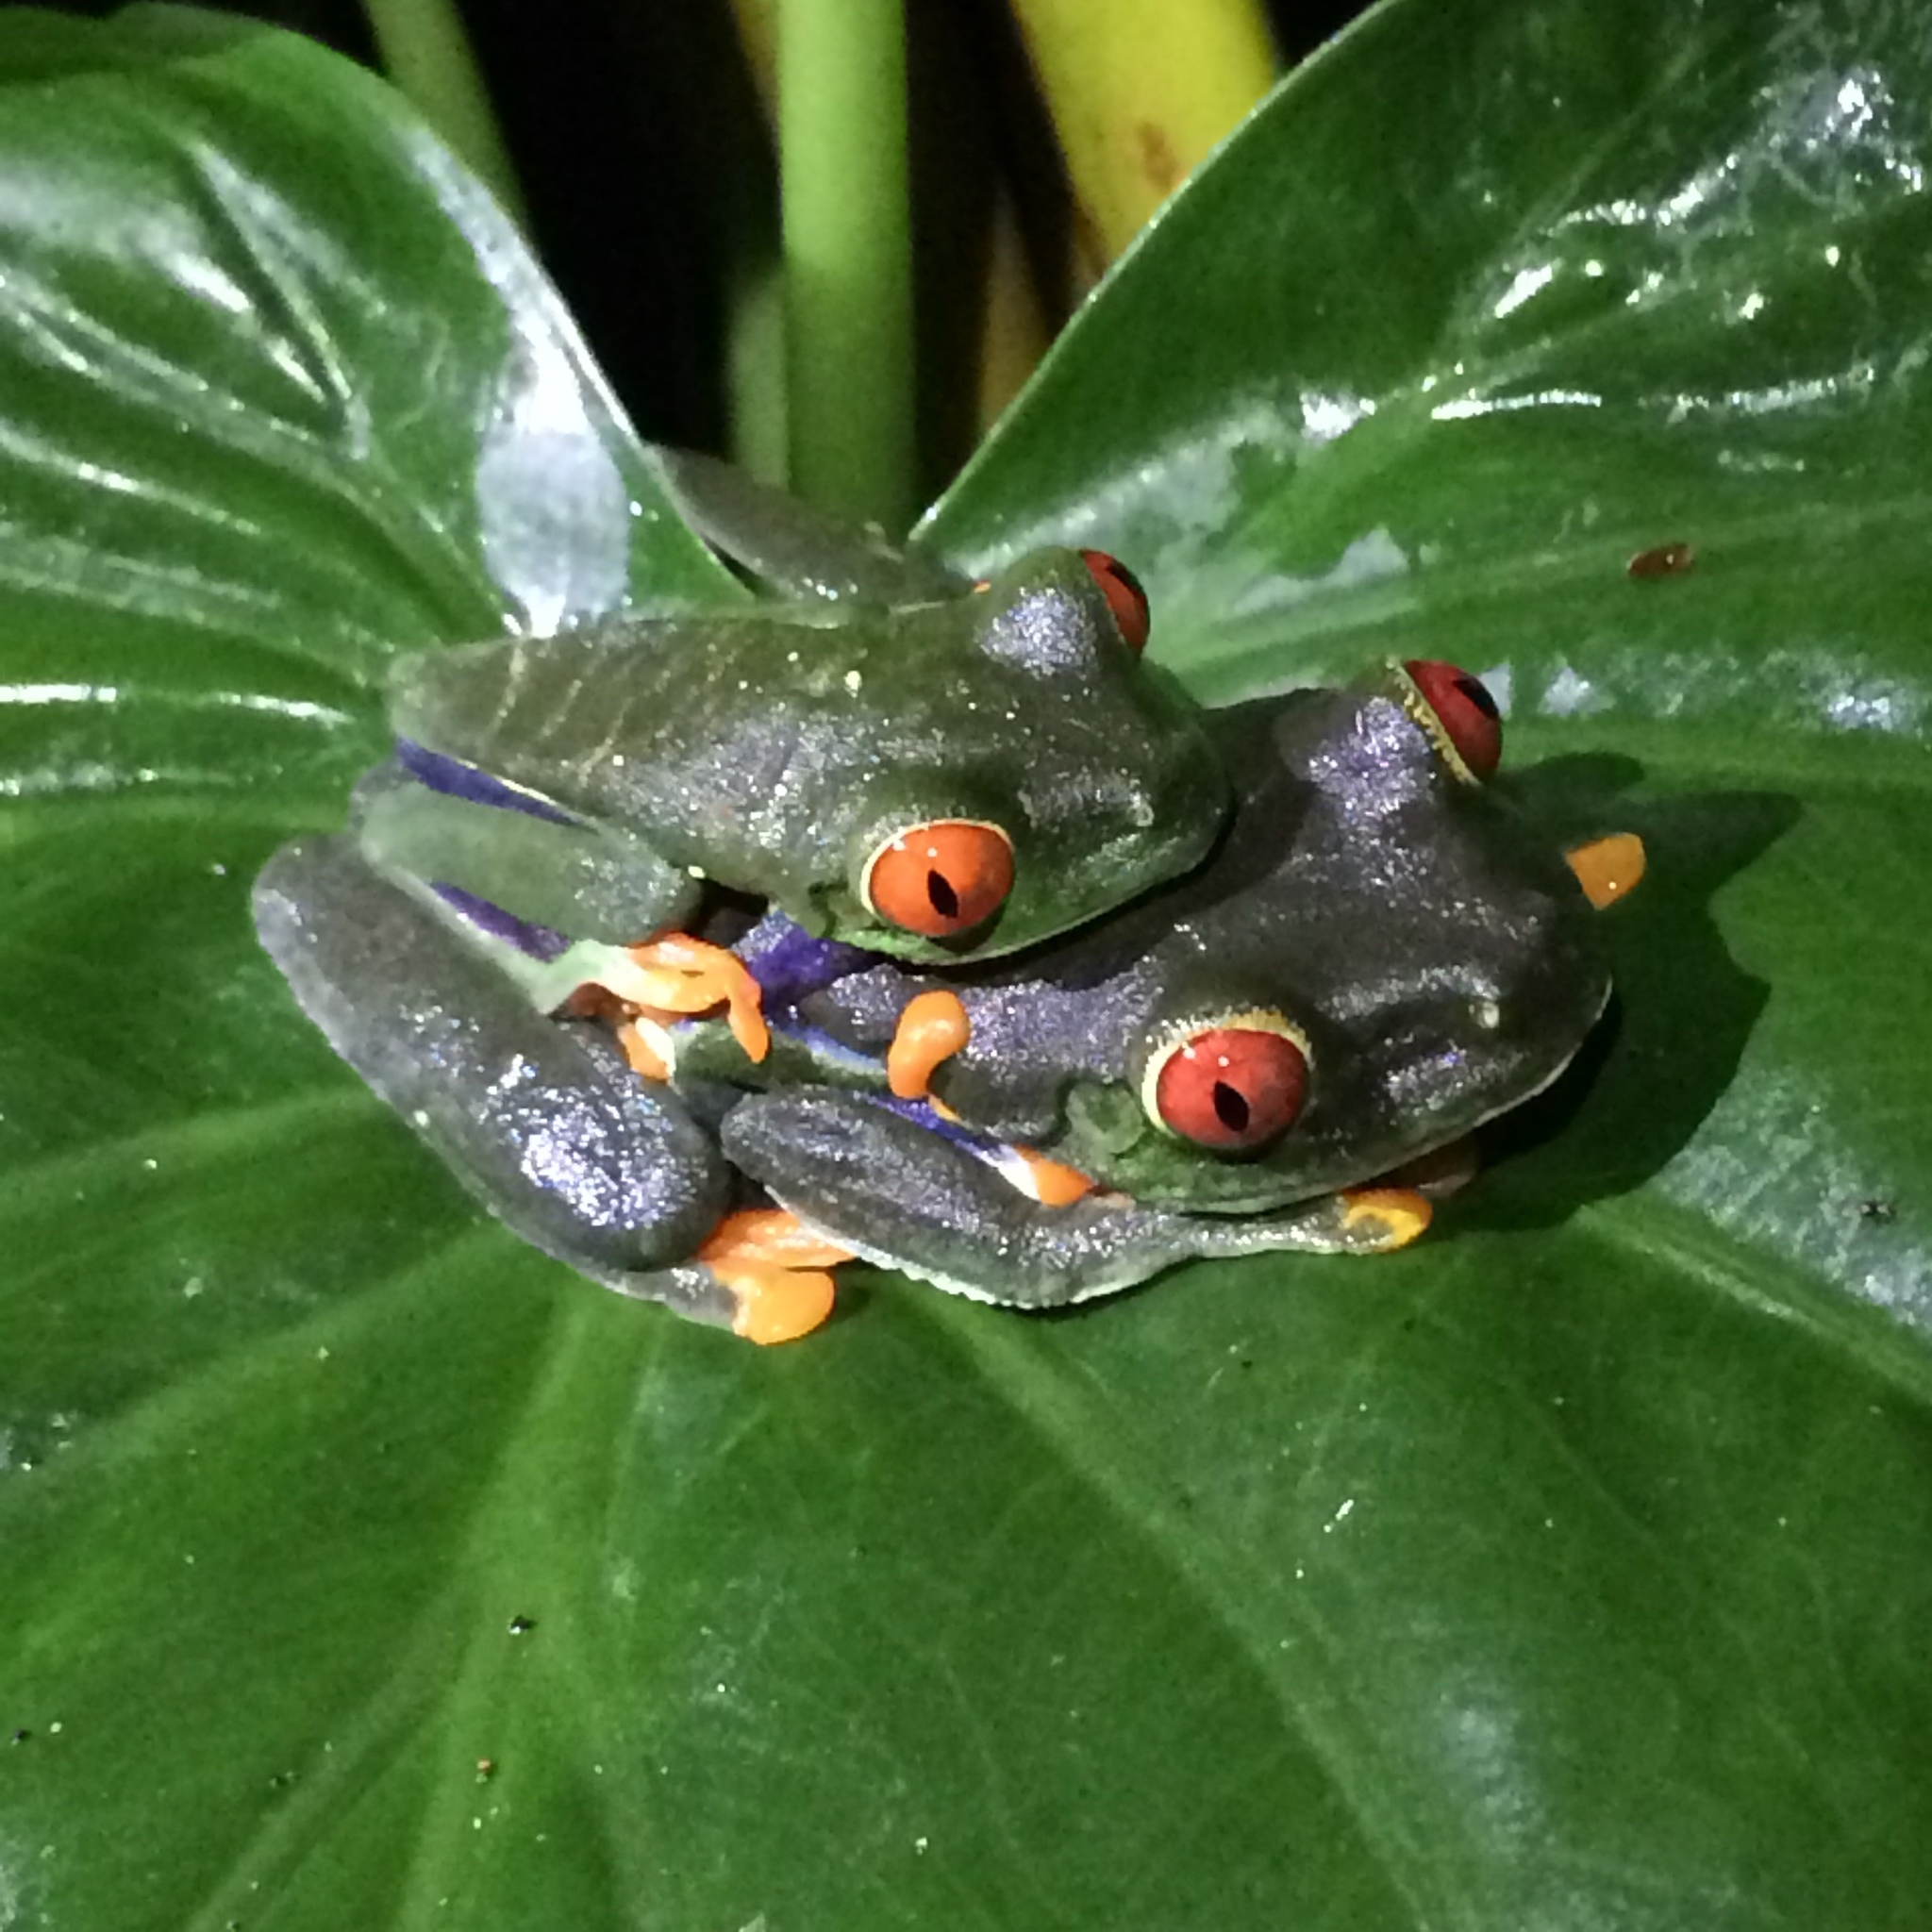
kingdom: Animalia
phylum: Chordata
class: Amphibia
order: Anura
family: Phyllomedusidae
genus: Agalychnis
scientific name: Agalychnis callidryas
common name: Red-eyed treefrog
